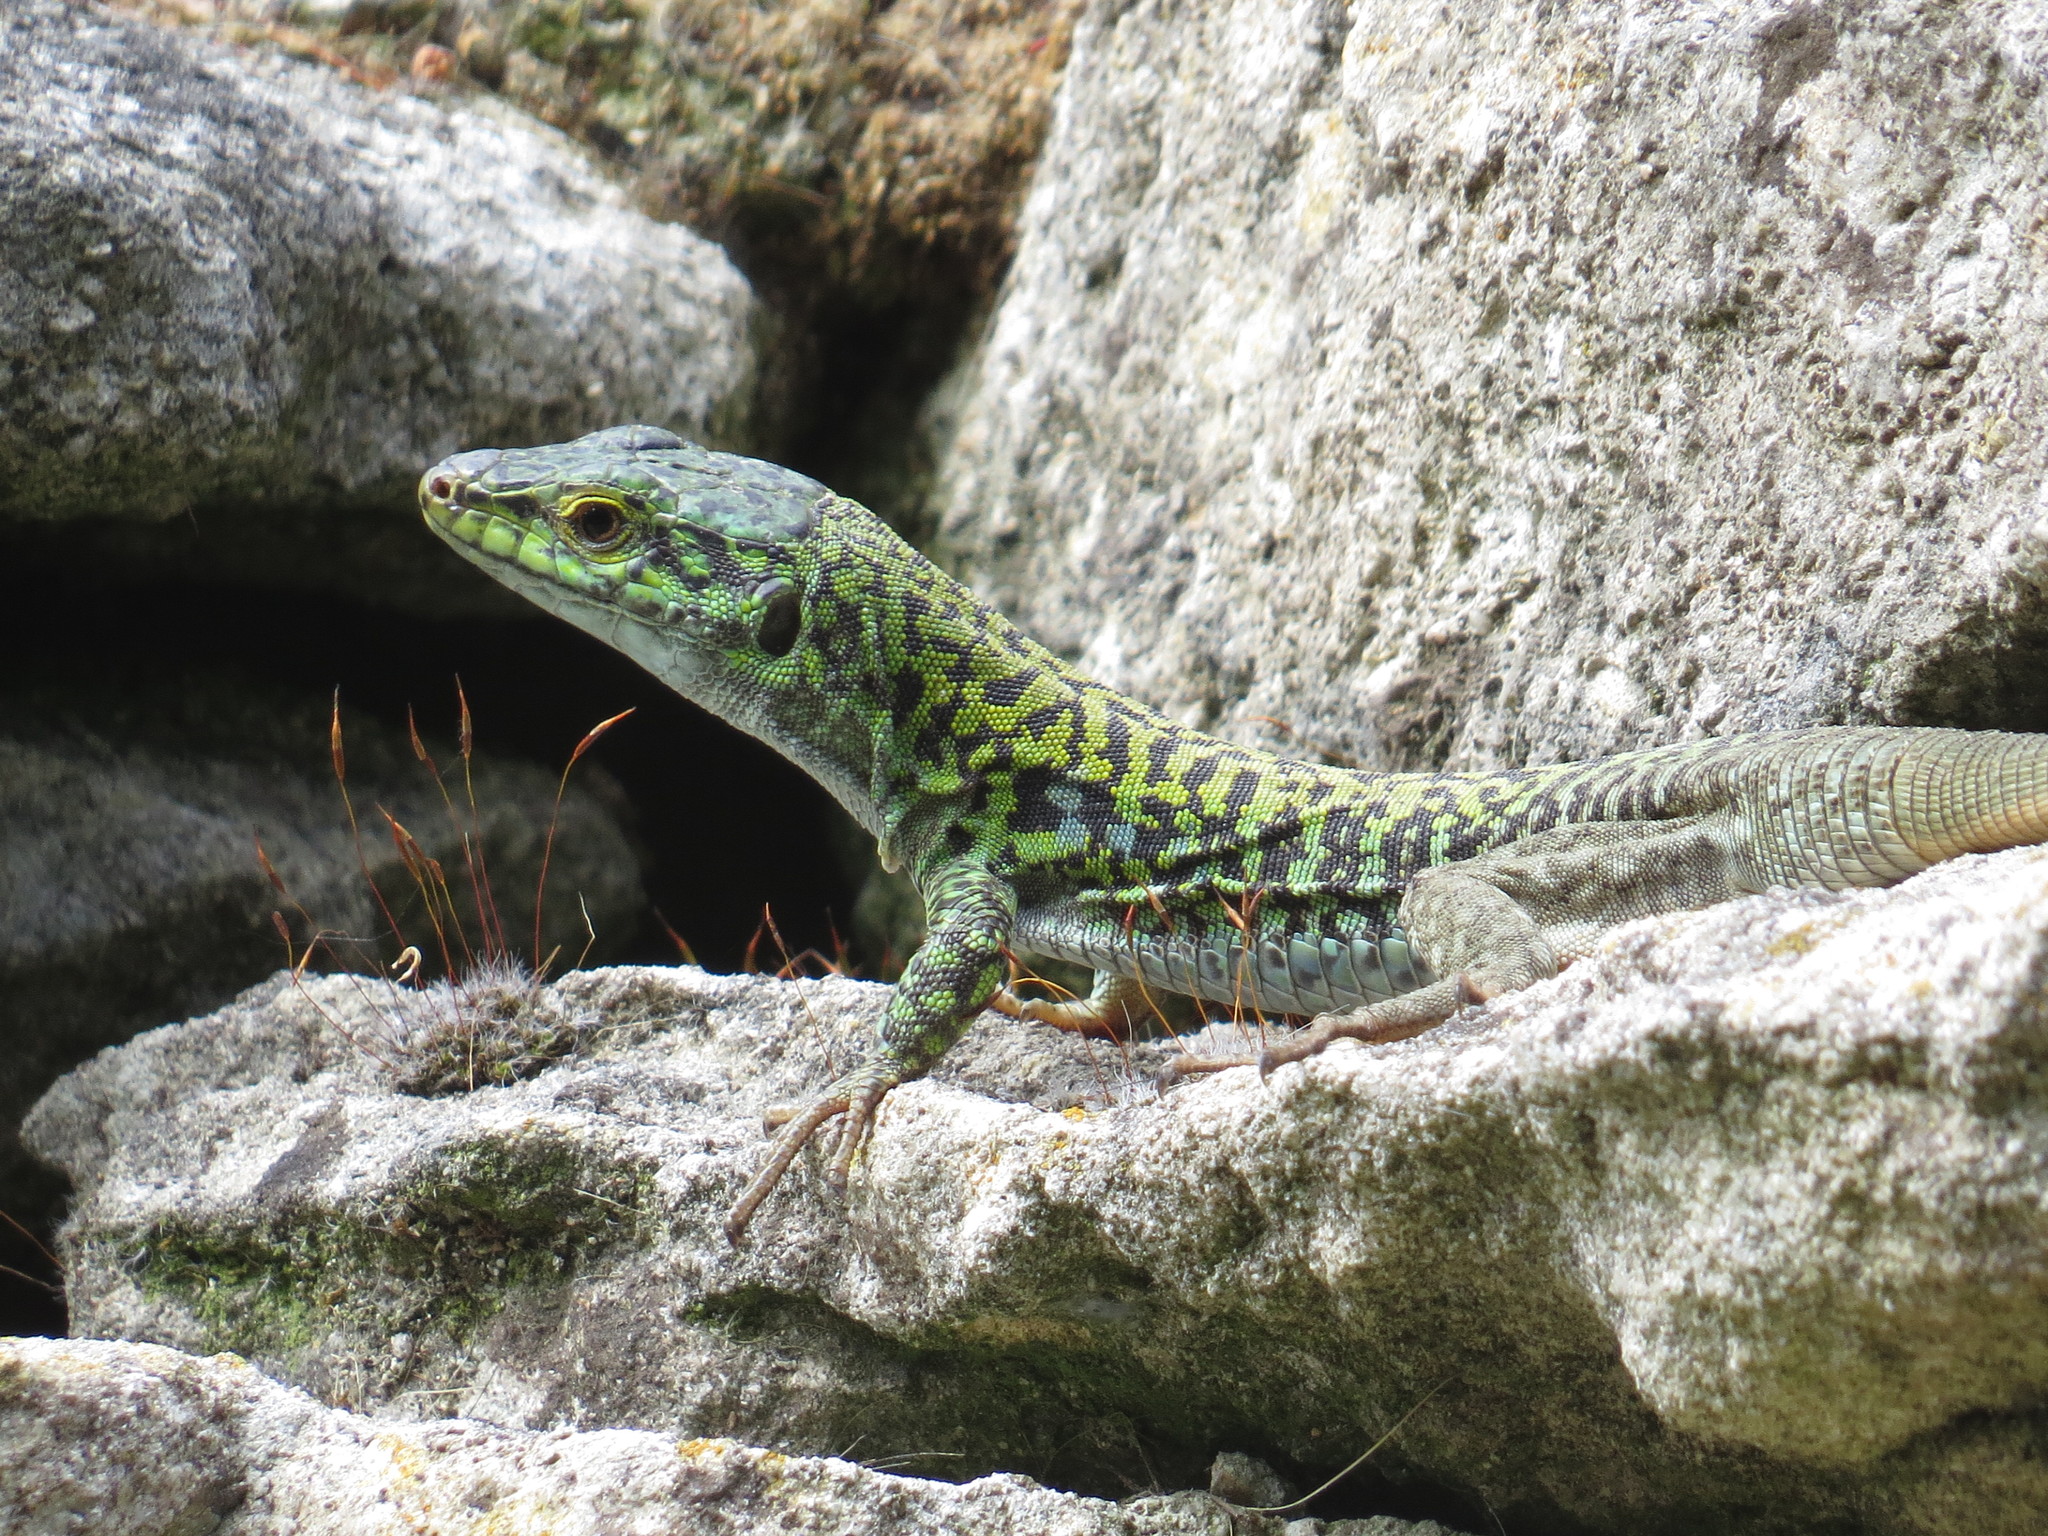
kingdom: Animalia
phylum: Chordata
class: Squamata
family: Lacertidae
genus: Podarcis
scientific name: Podarcis siculus
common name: Italian wall lizard
